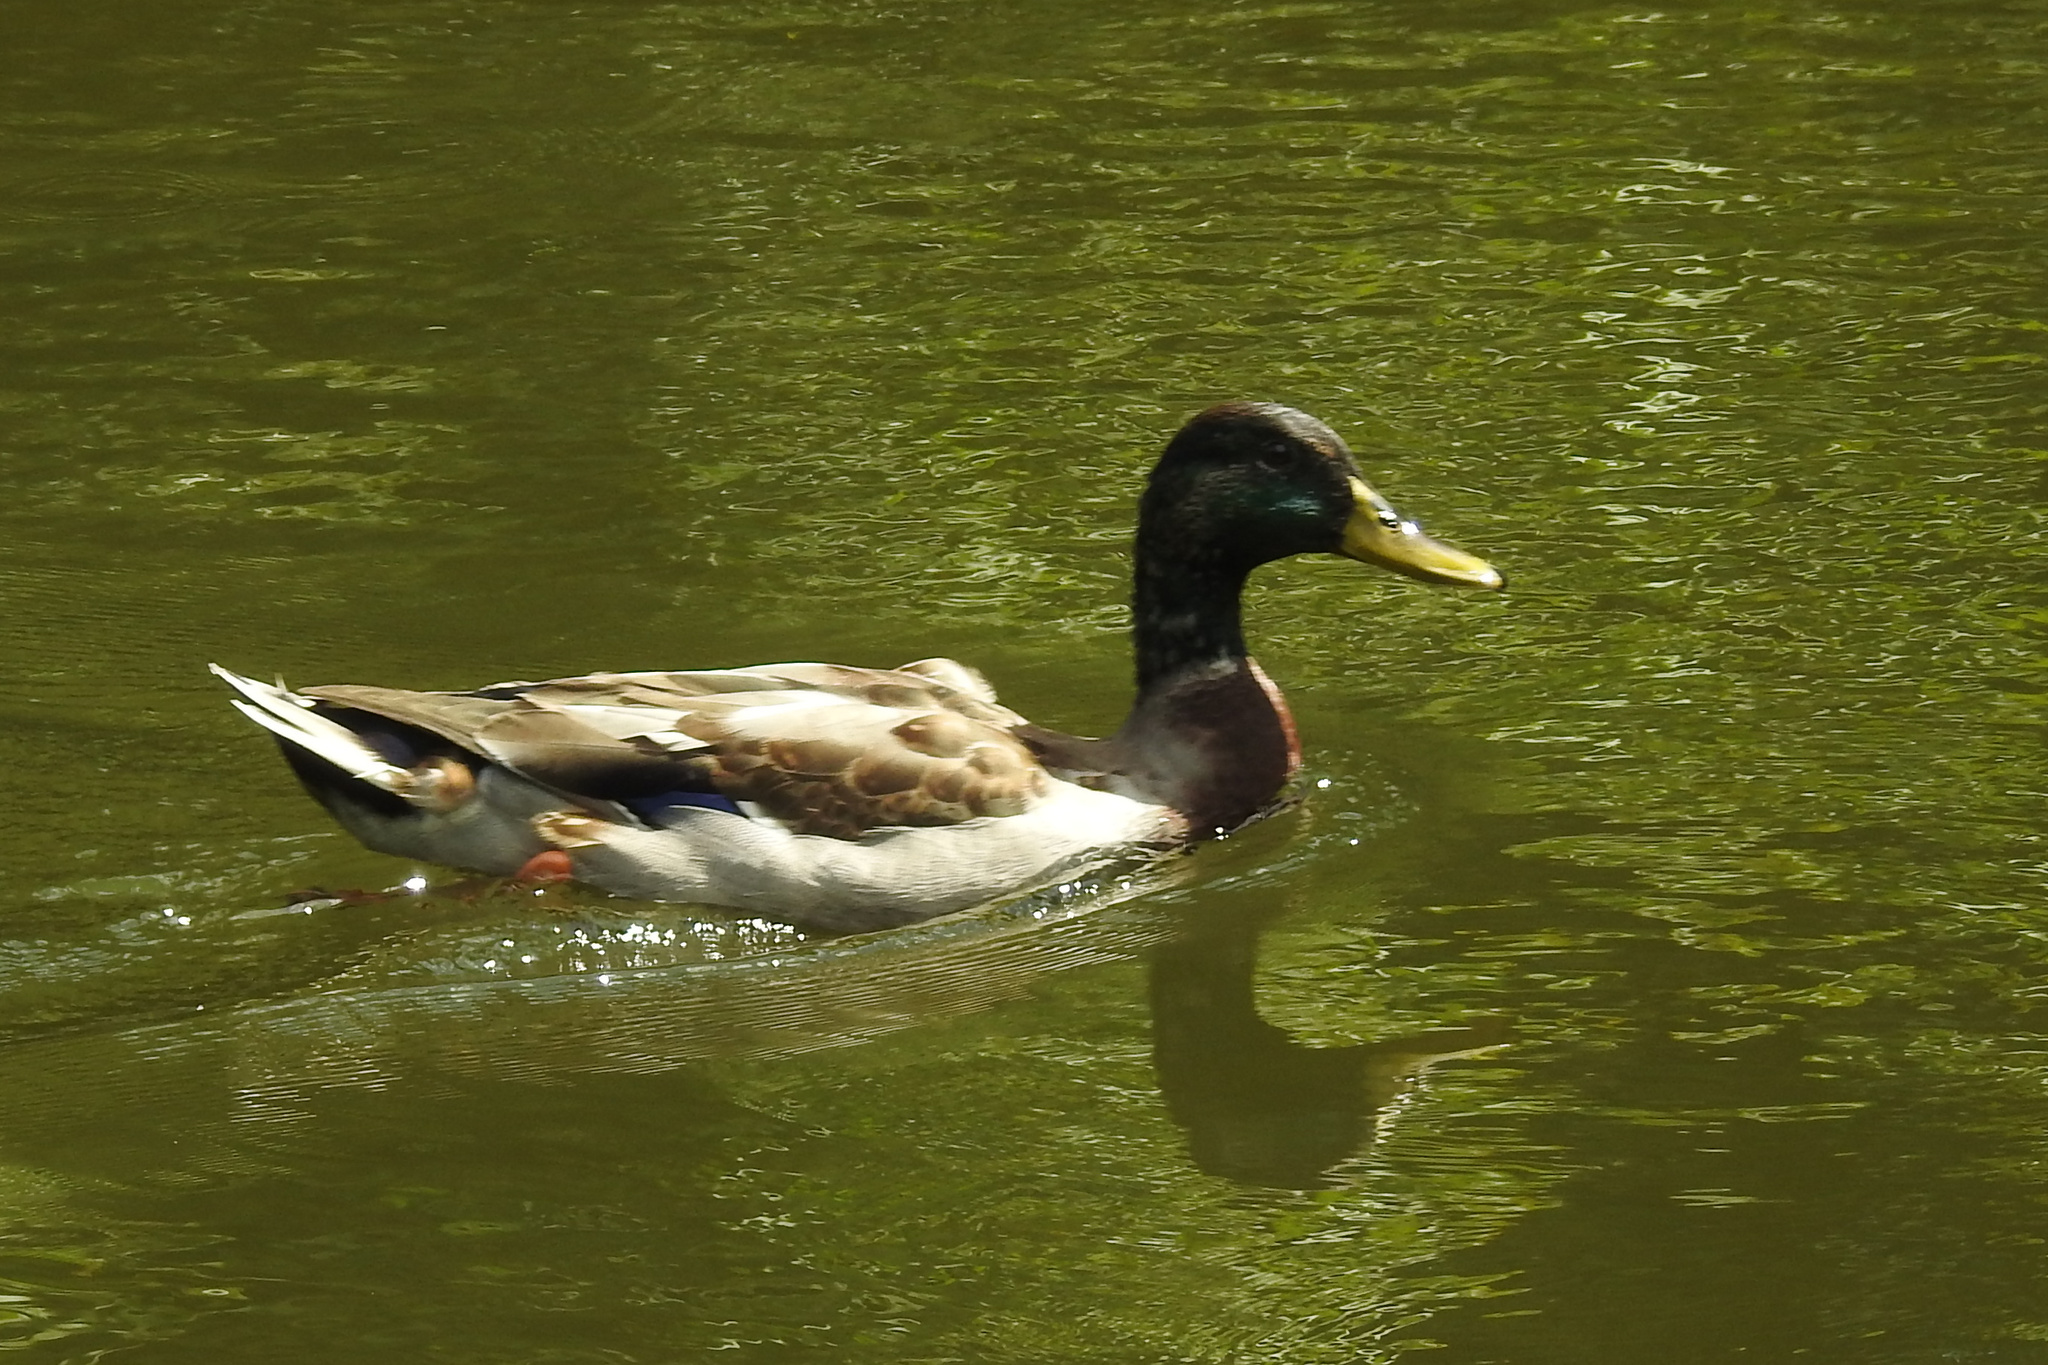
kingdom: Animalia
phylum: Chordata
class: Aves
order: Anseriformes
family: Anatidae
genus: Anas
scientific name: Anas platyrhynchos
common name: Mallard
